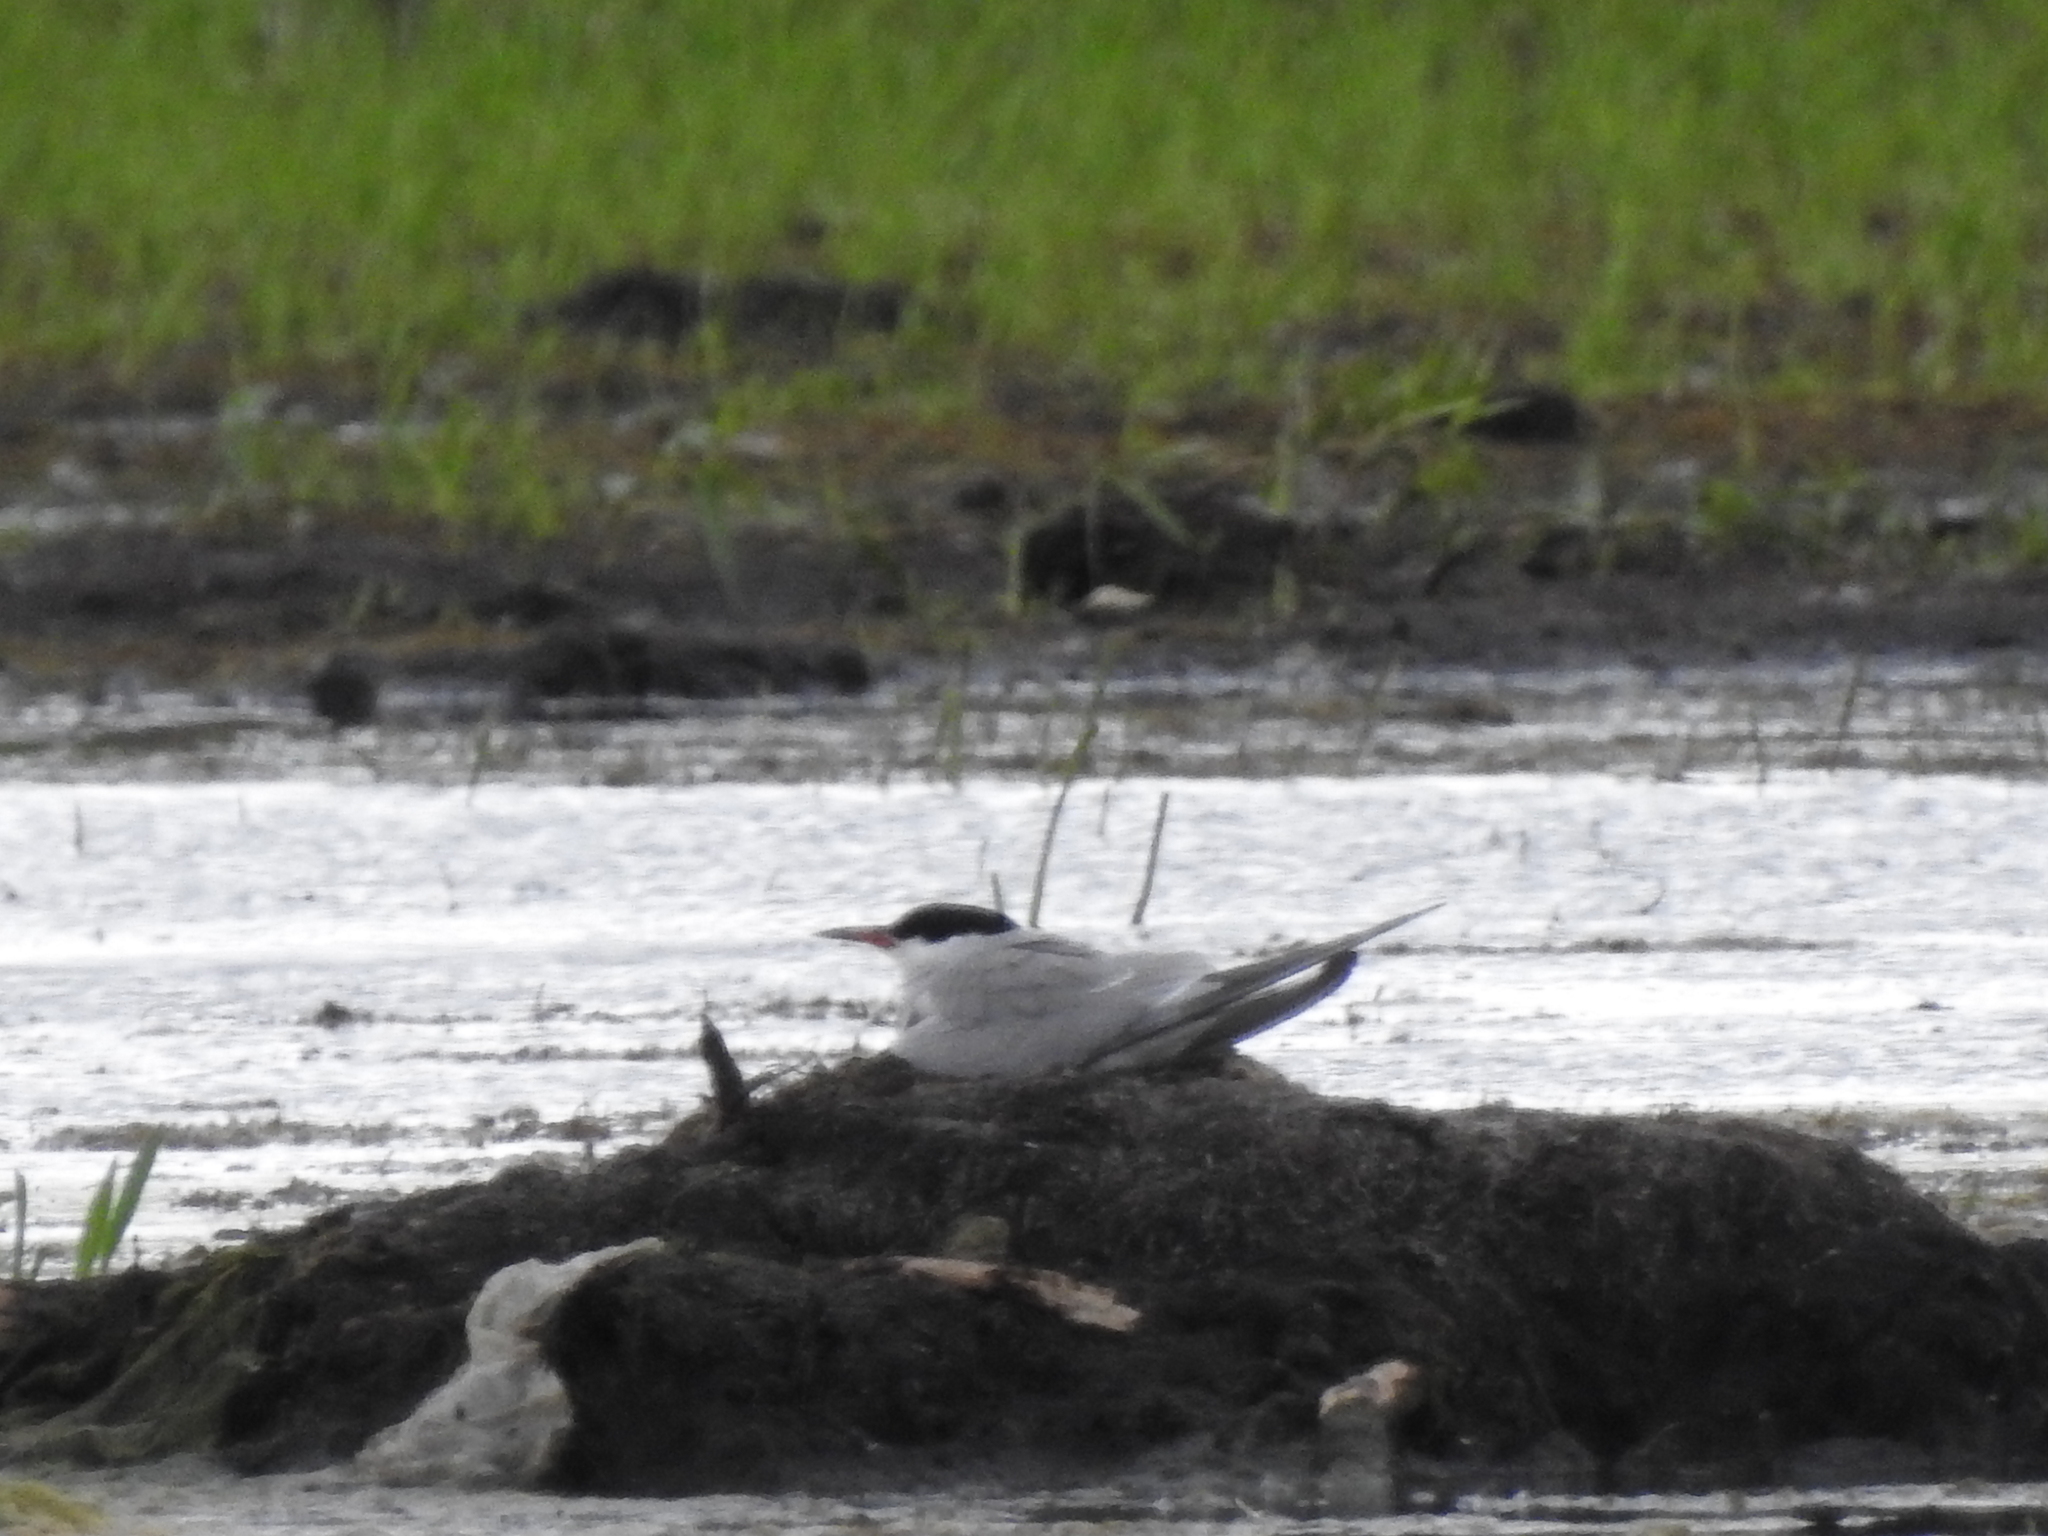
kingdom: Animalia
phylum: Chordata
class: Aves
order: Charadriiformes
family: Laridae
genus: Sterna
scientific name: Sterna hirundo
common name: Common tern
